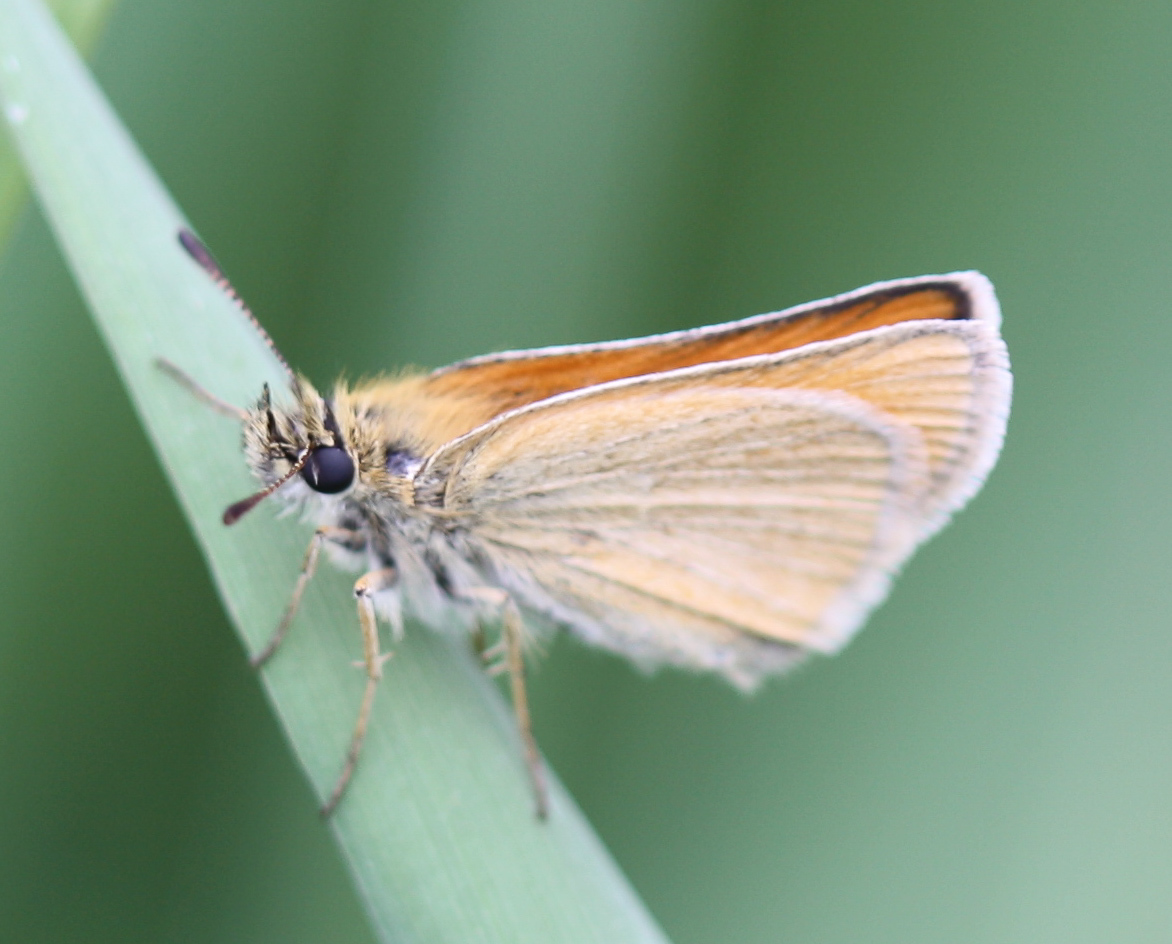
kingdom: Animalia
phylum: Arthropoda
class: Insecta
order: Lepidoptera
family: Hesperiidae
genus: Thymelicus
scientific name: Thymelicus lineola
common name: Essex skipper
